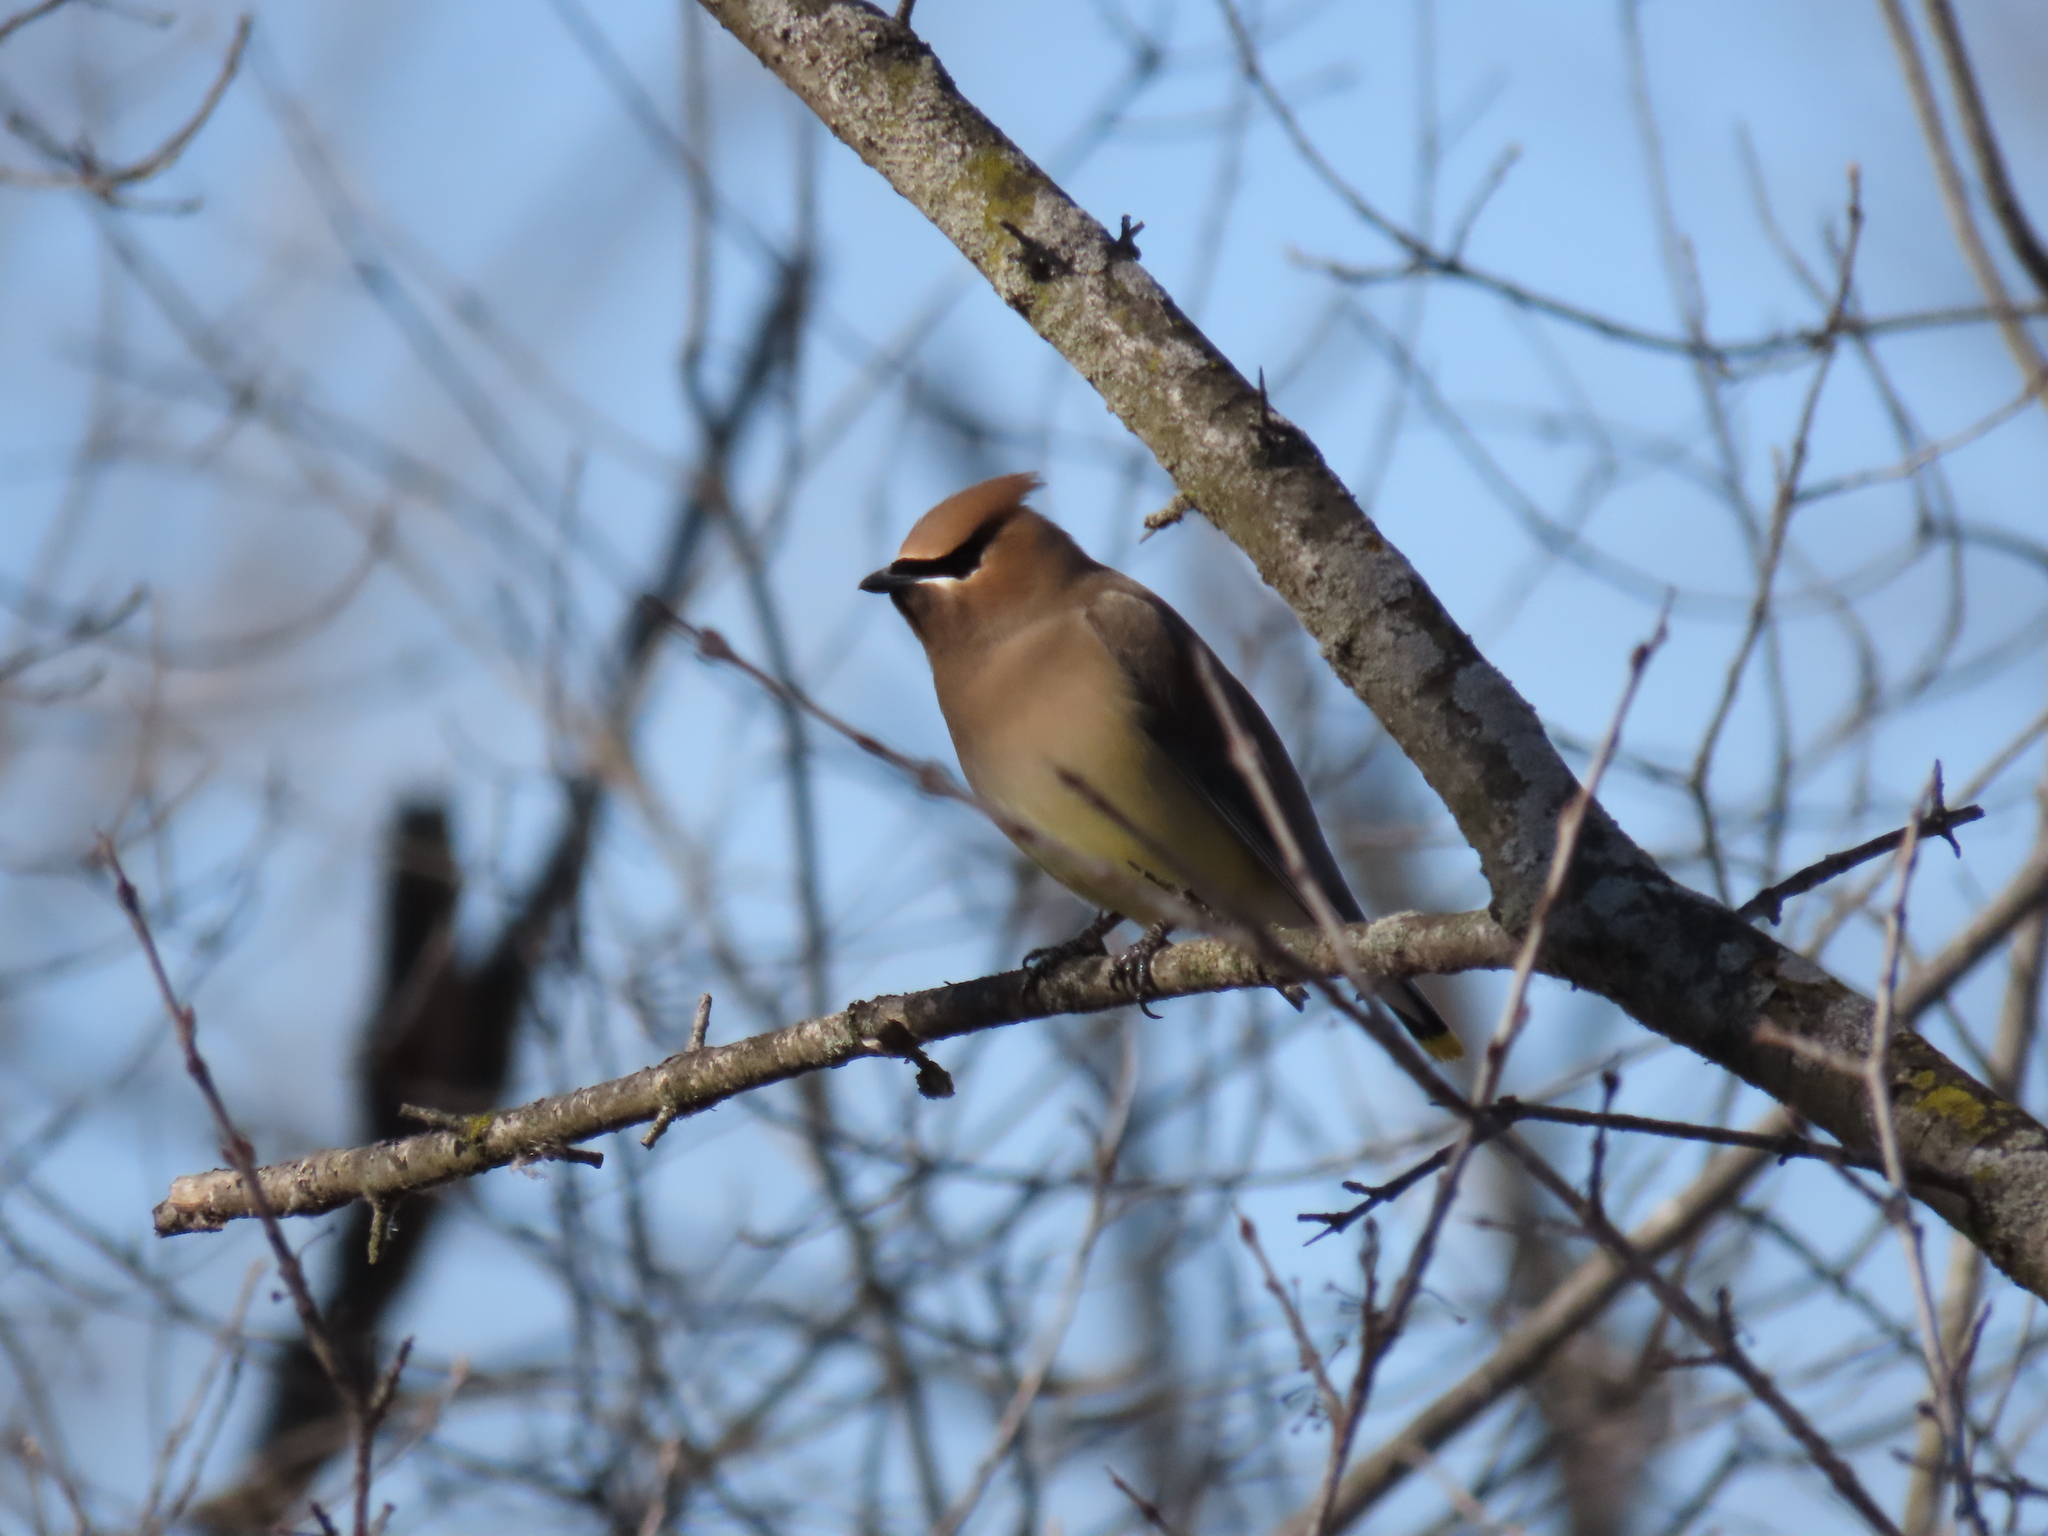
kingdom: Animalia
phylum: Chordata
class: Aves
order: Passeriformes
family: Bombycillidae
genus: Bombycilla
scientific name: Bombycilla cedrorum
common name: Cedar waxwing
